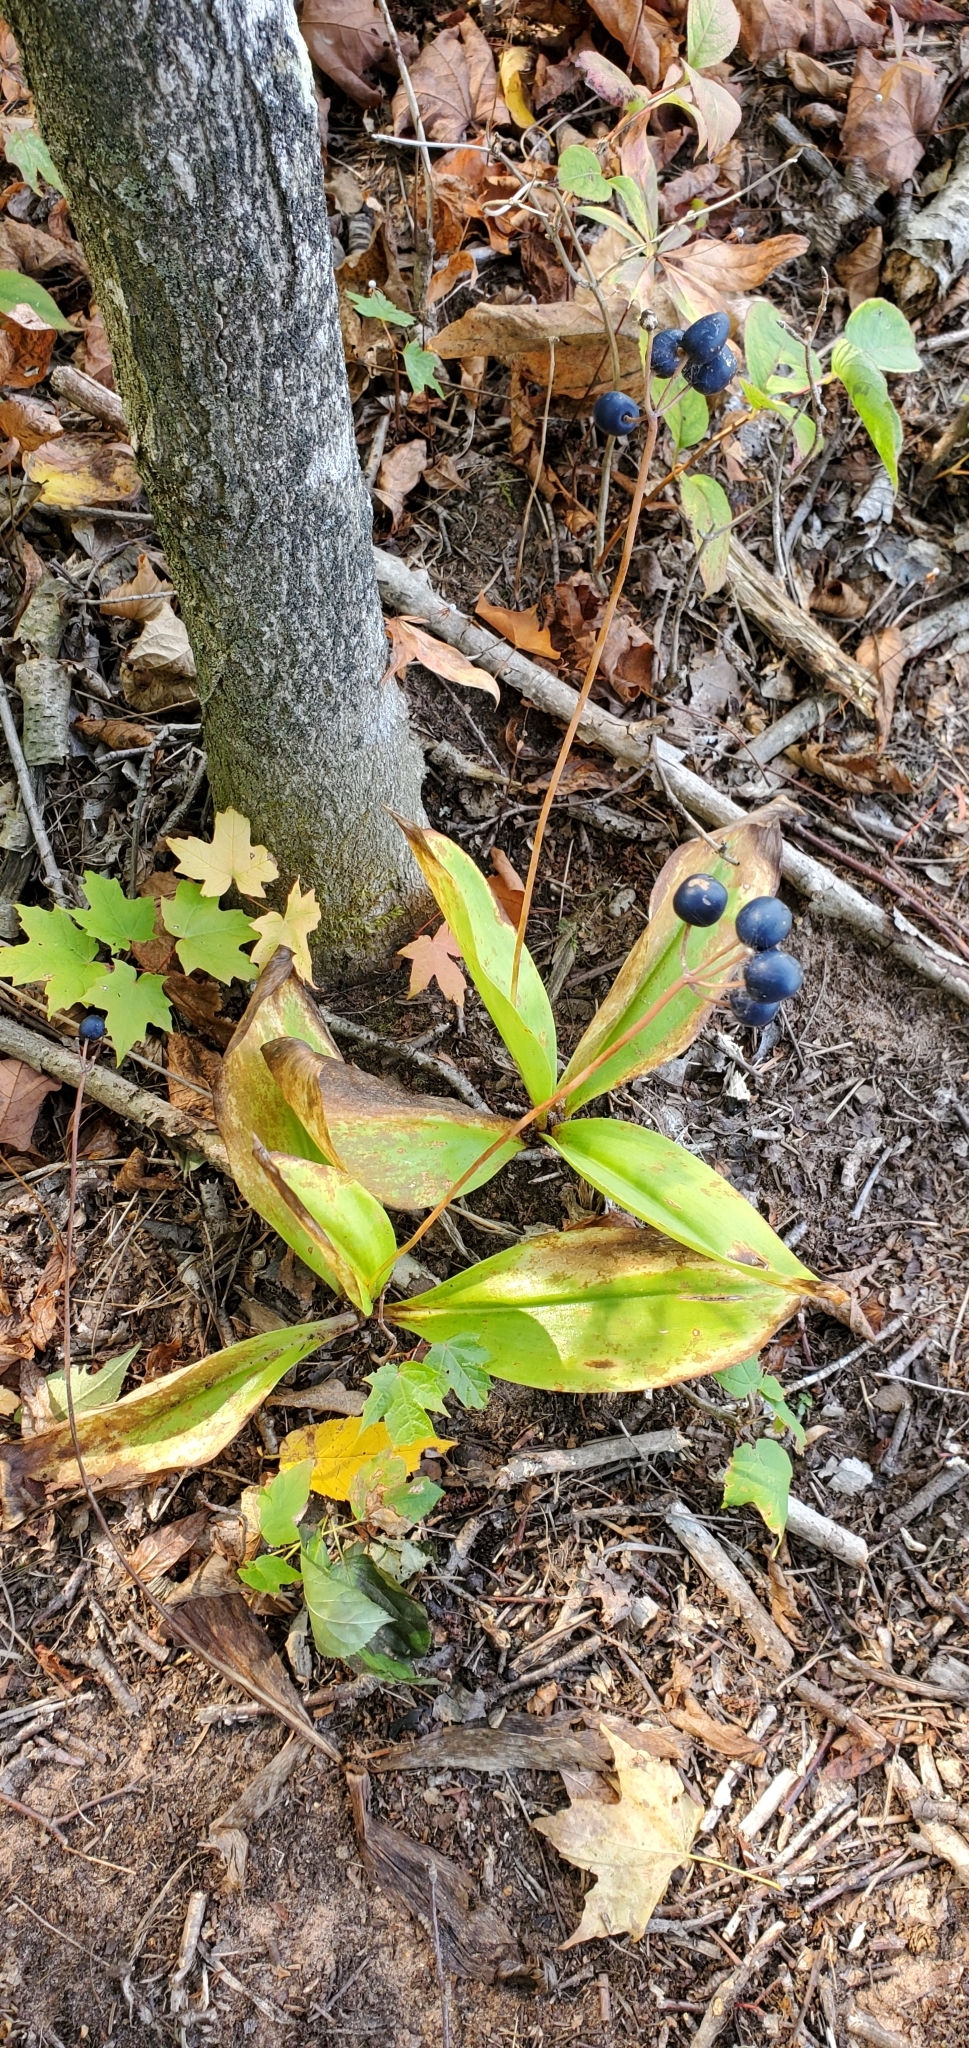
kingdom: Plantae
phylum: Tracheophyta
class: Liliopsida
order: Liliales
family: Liliaceae
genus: Clintonia
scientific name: Clintonia borealis
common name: Yellow clintonia
